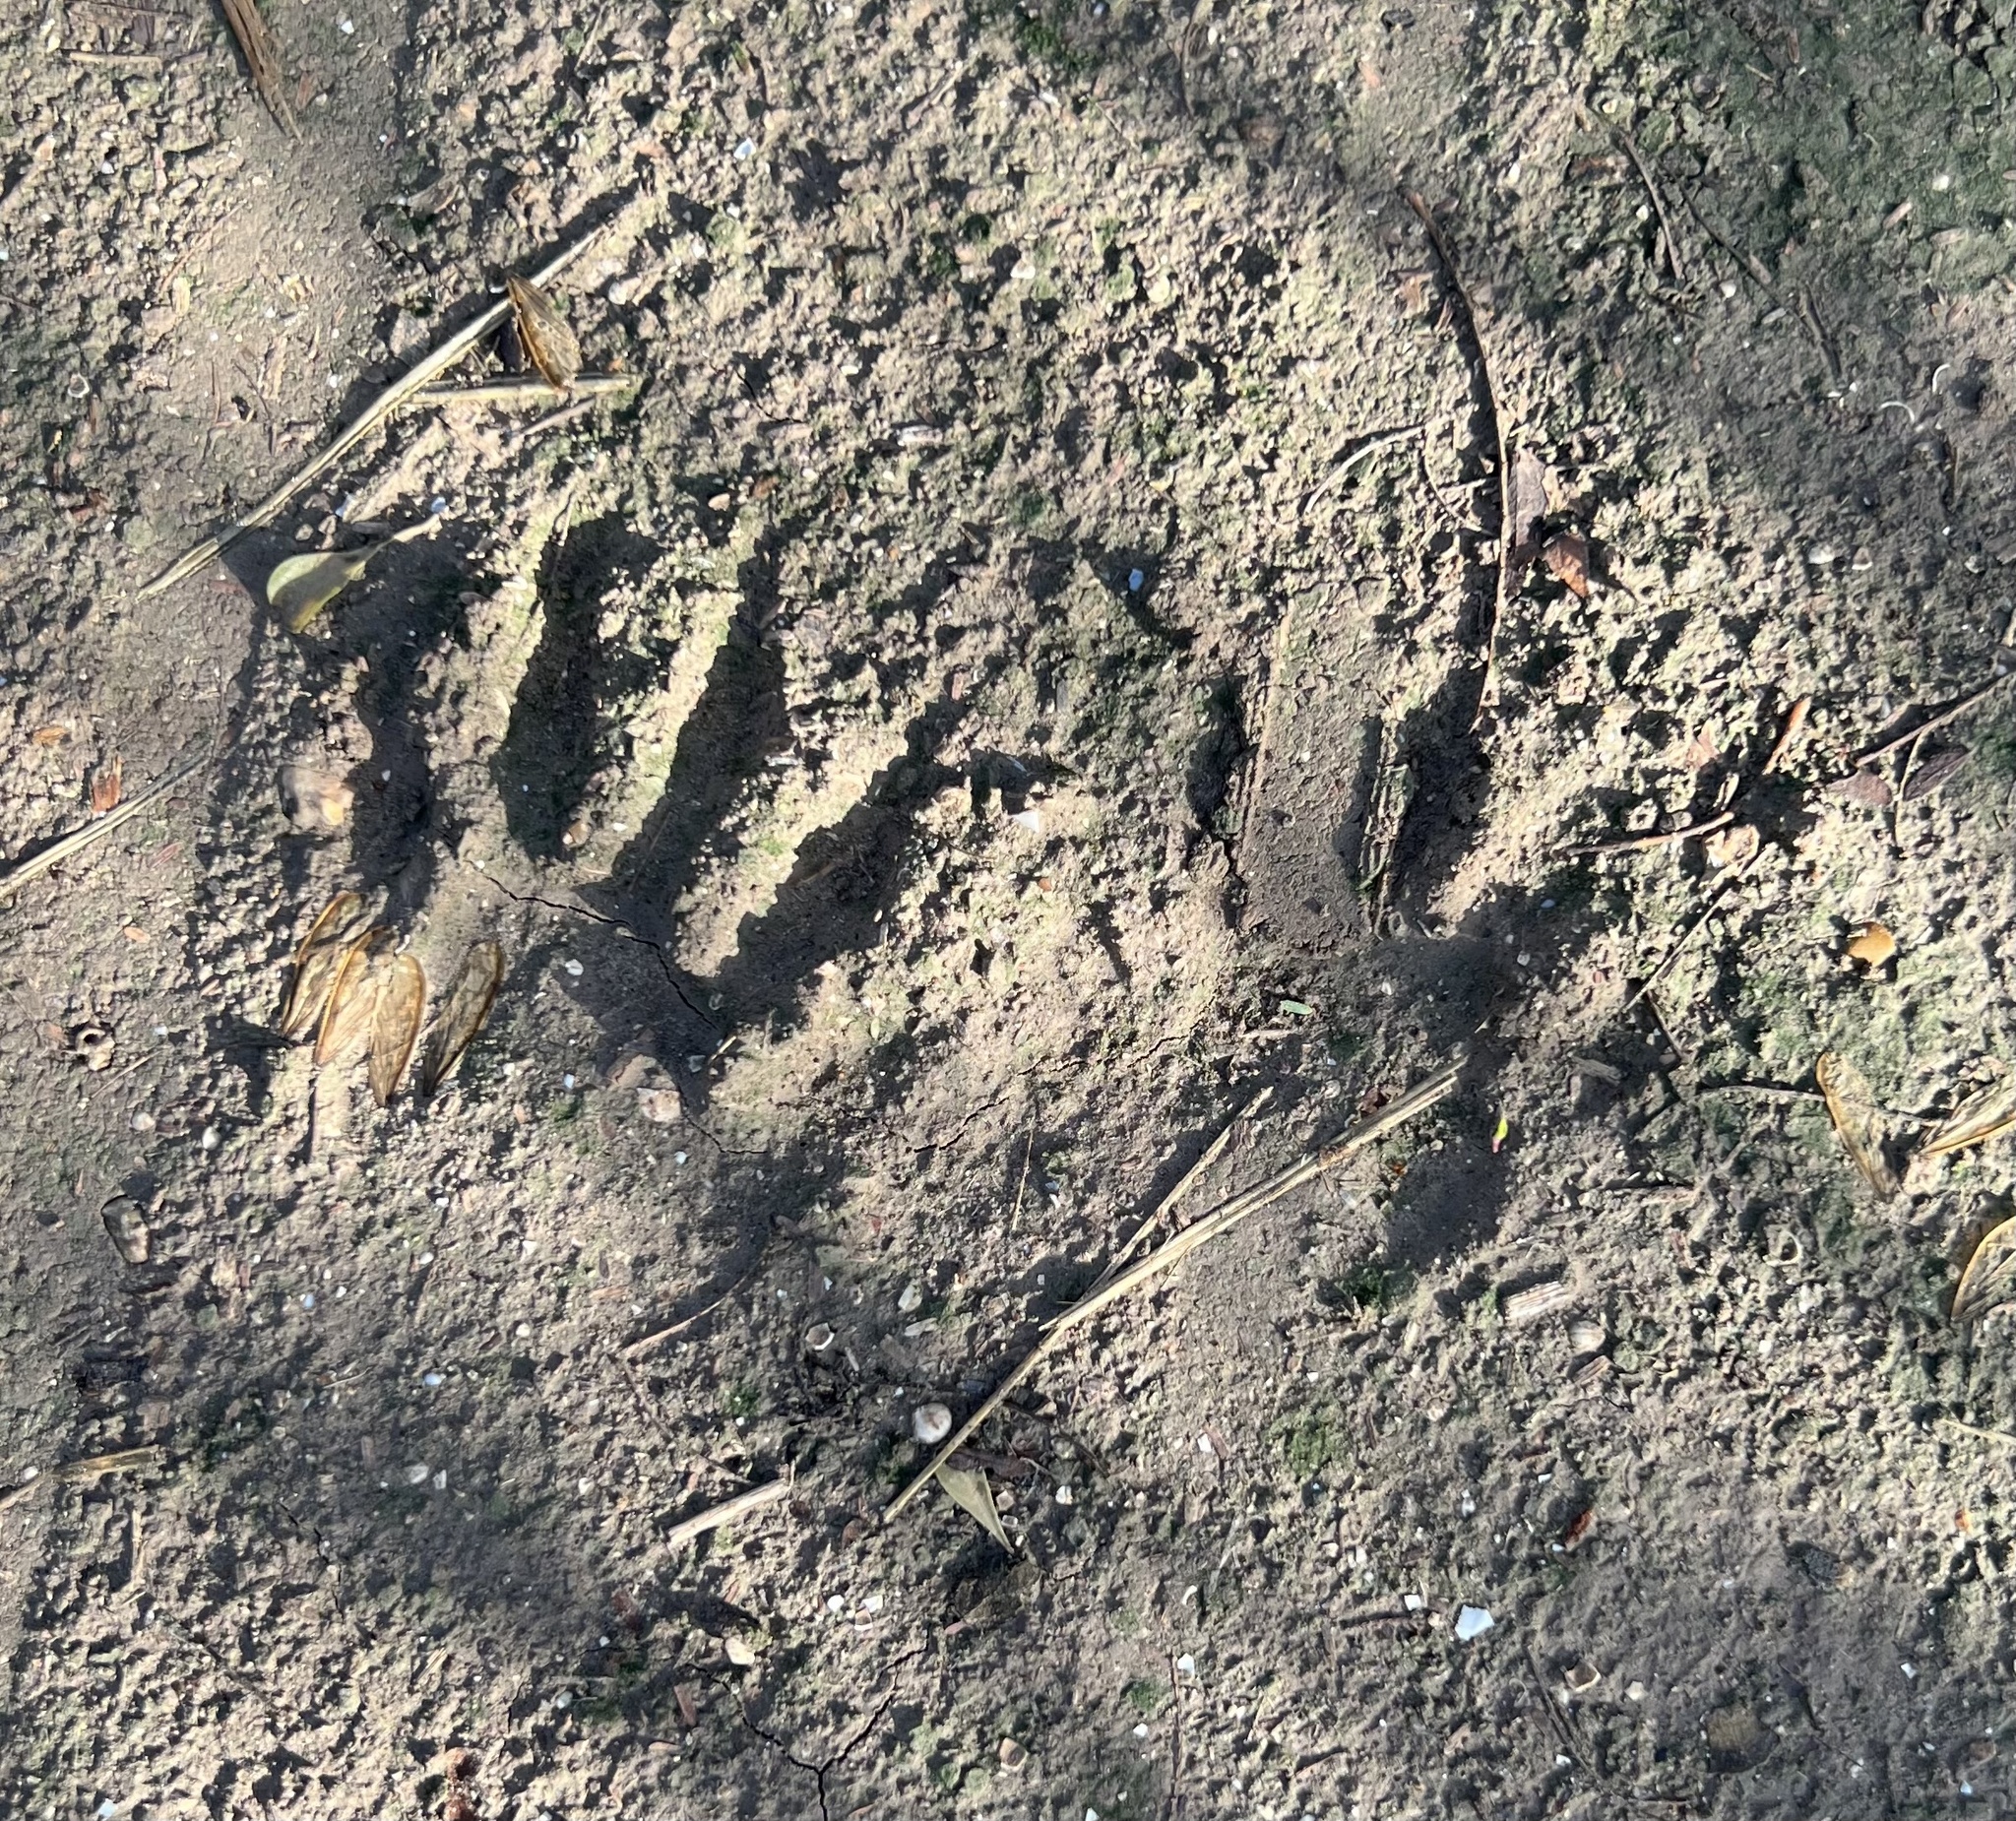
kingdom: Animalia
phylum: Chordata
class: Mammalia
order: Carnivora
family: Procyonidae
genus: Procyon
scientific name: Procyon lotor
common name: Raccoon
